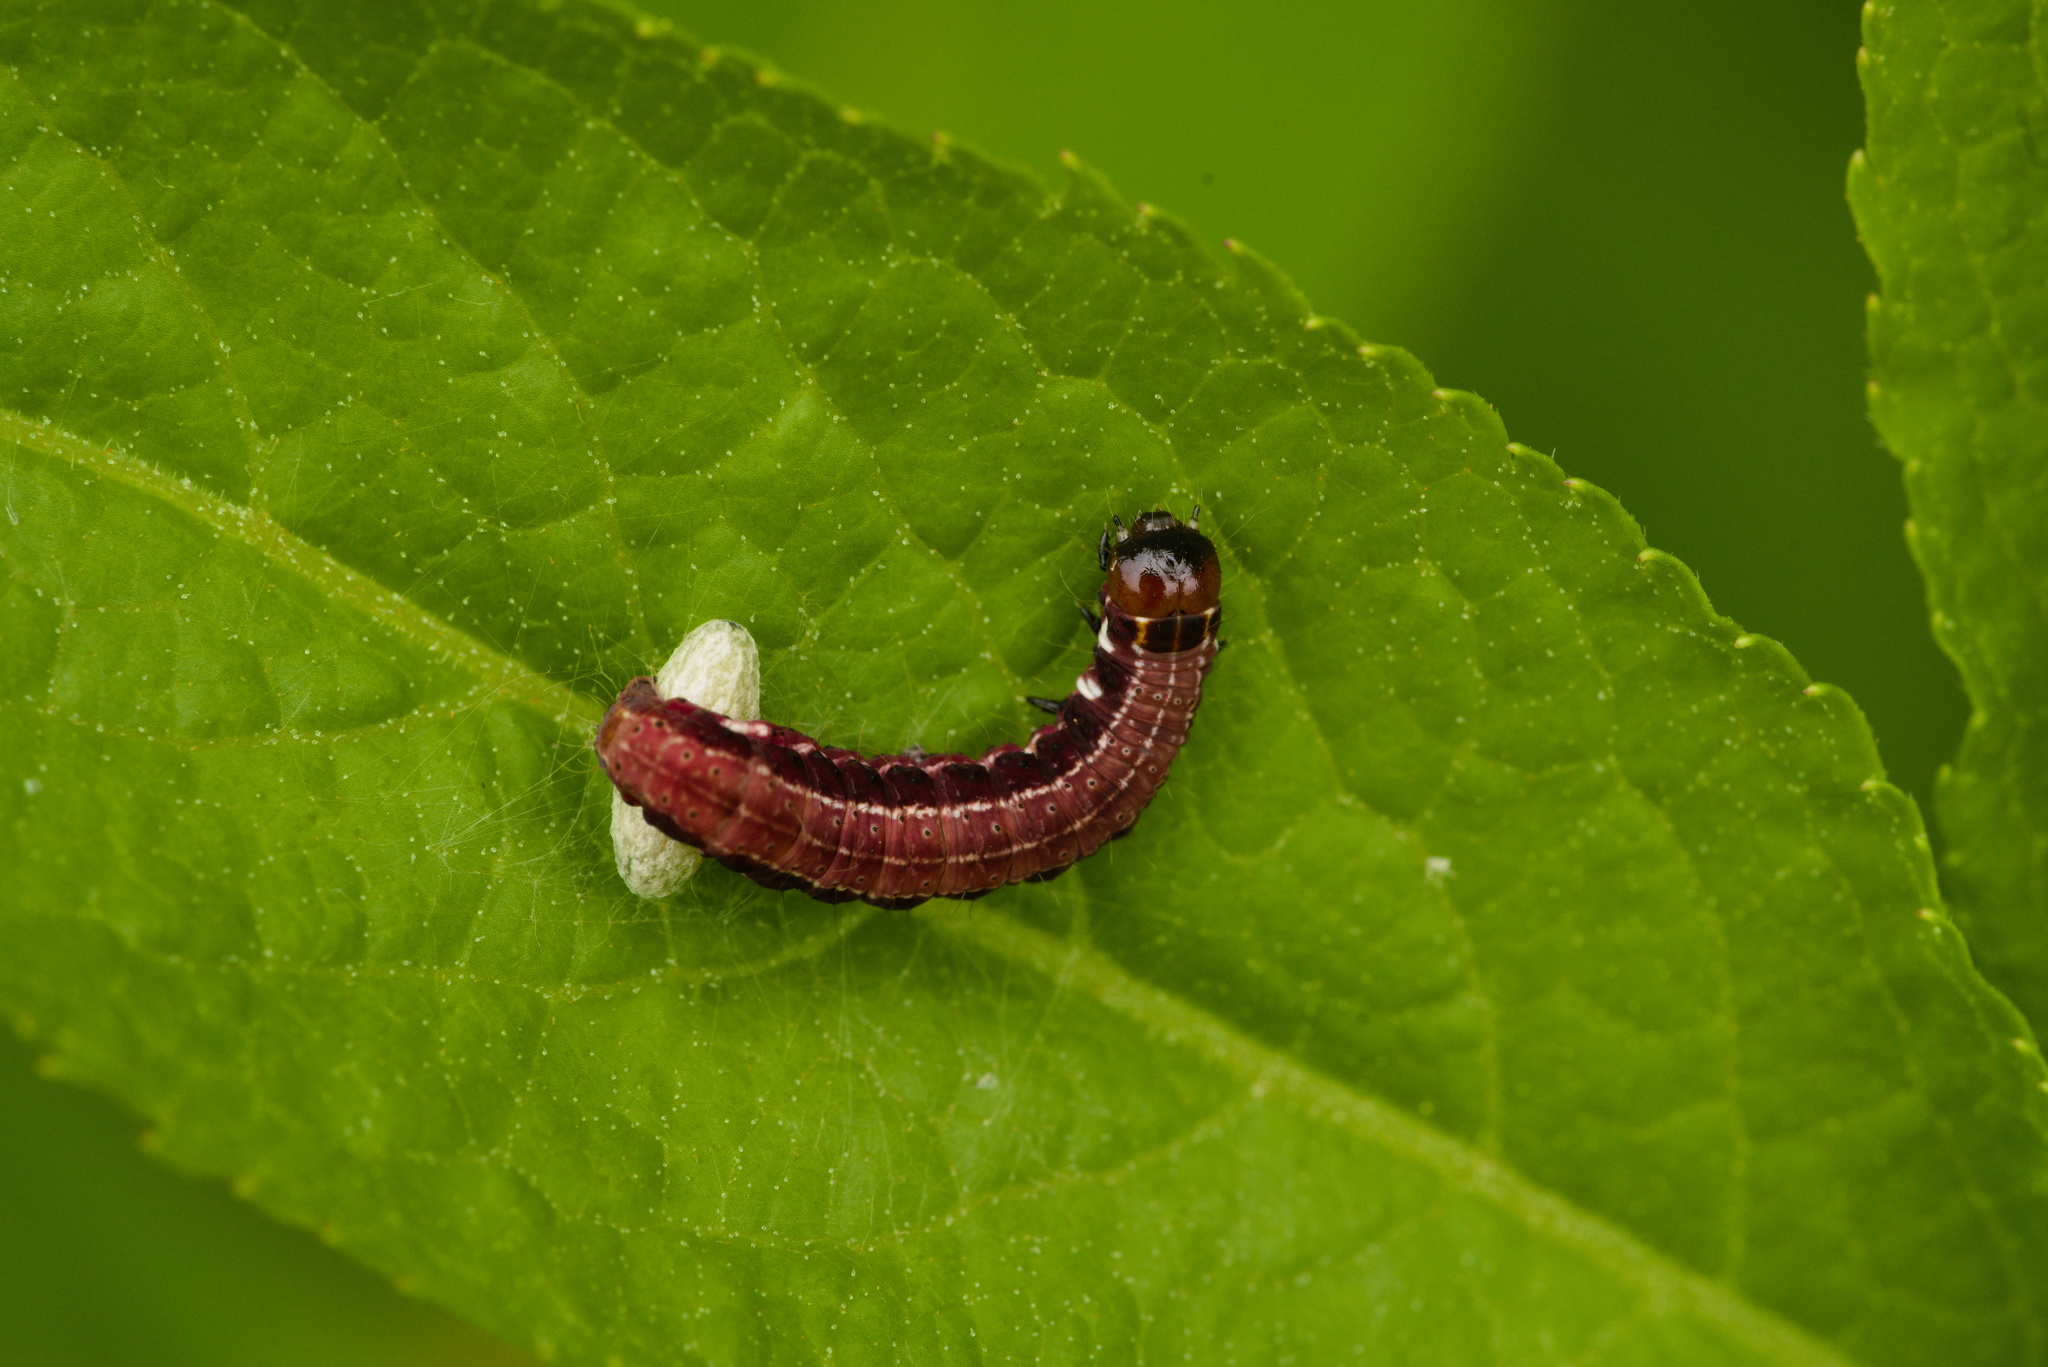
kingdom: Animalia
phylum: Arthropoda
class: Insecta
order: Lepidoptera
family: Noctuidae
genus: Eupsilia
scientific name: Eupsilia transversa
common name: Satellite
